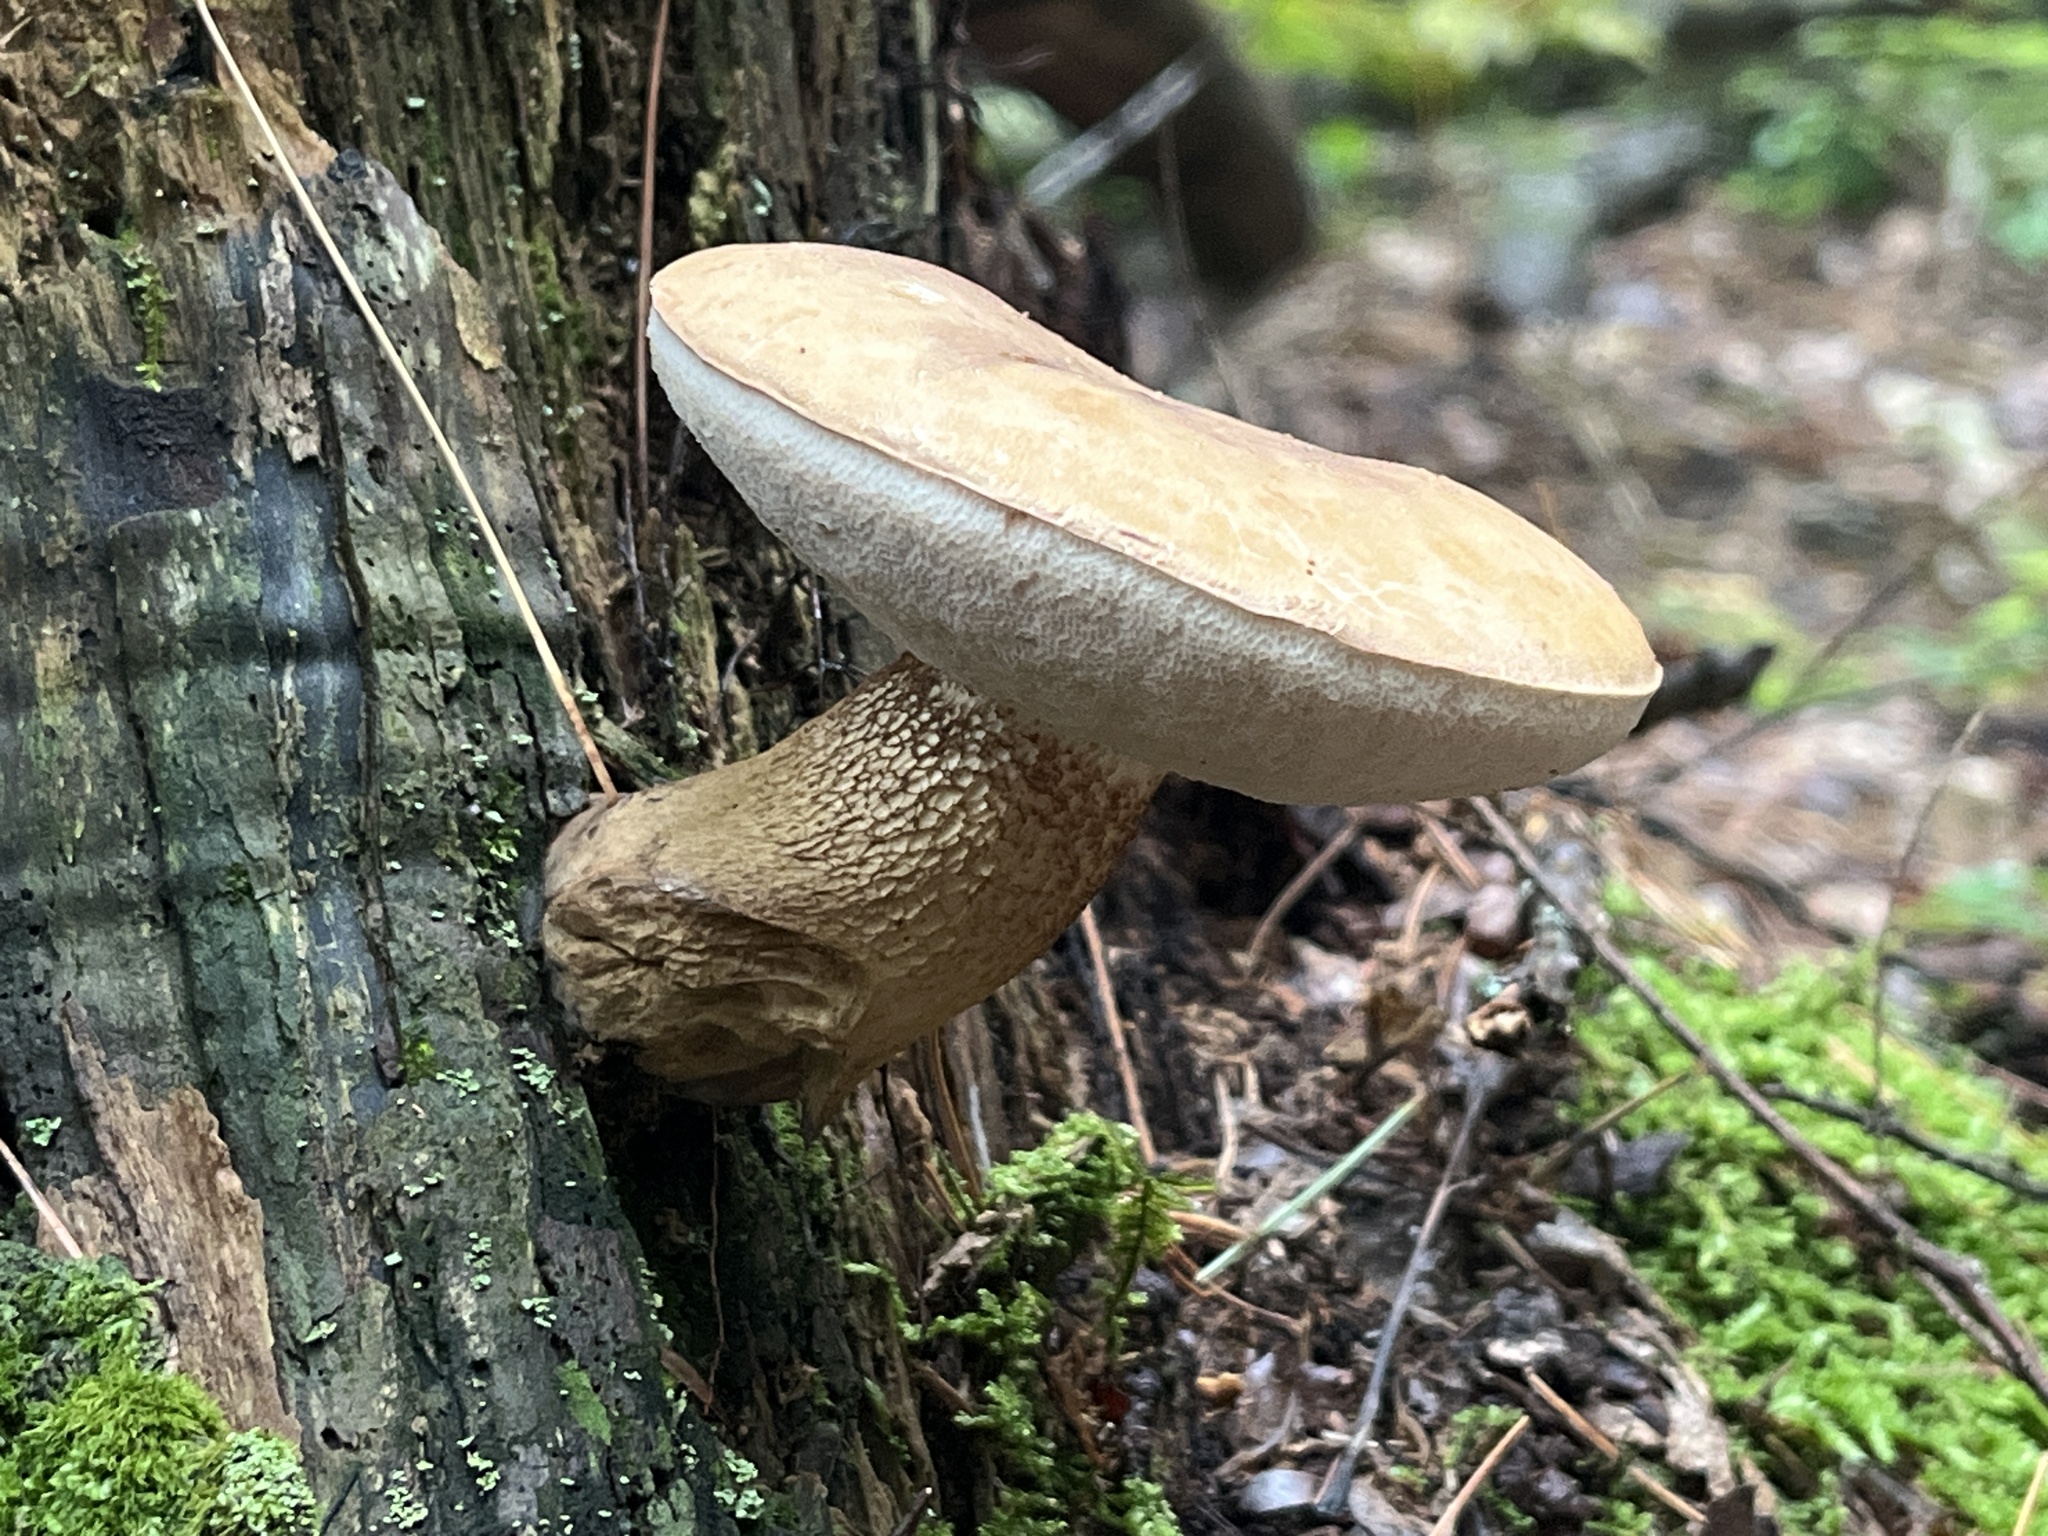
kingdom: Fungi
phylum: Basidiomycota
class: Agaricomycetes
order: Boletales
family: Boletaceae
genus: Tylopilus
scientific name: Tylopilus felleus
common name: Bitter bolete
